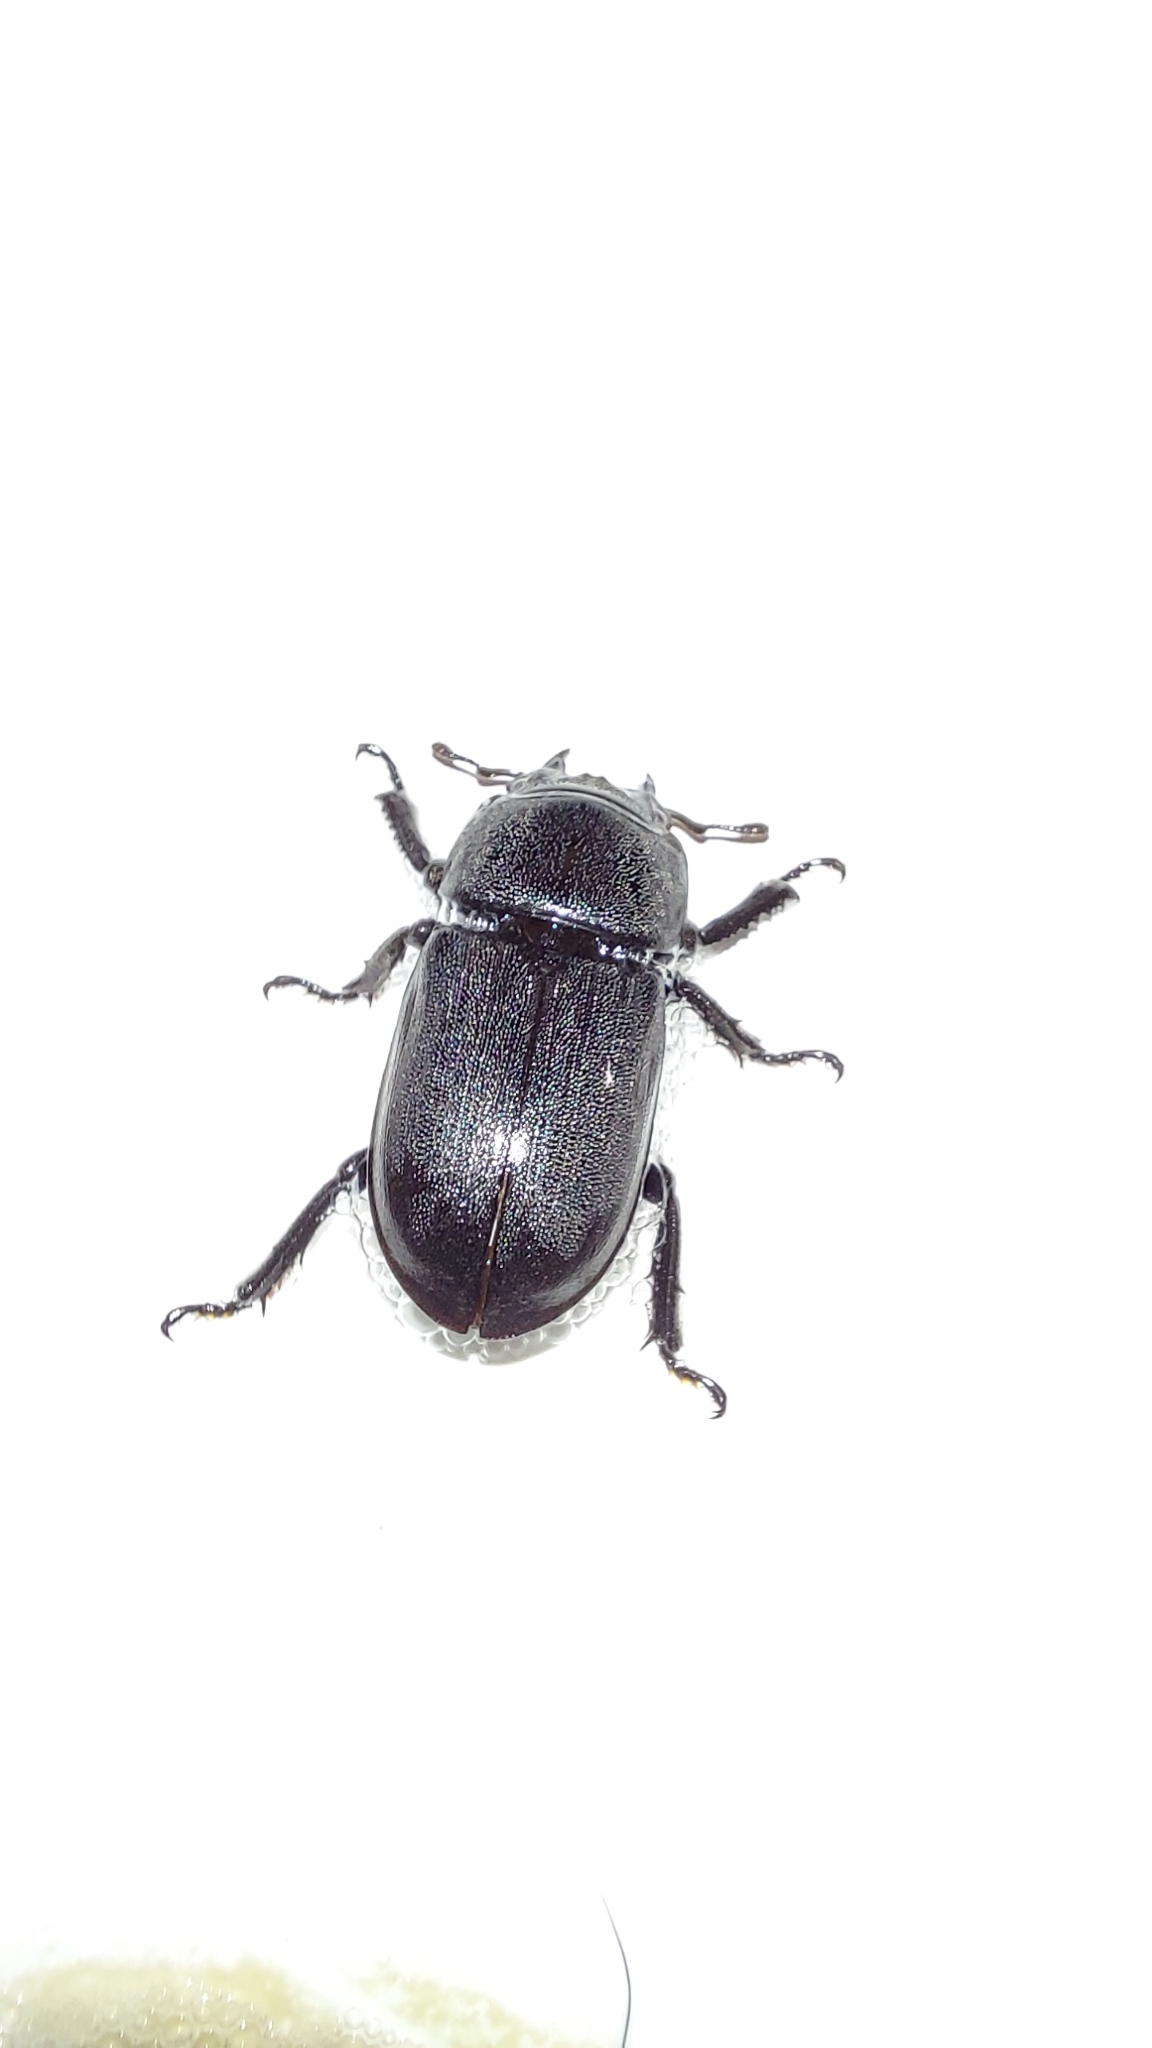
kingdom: Animalia
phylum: Arthropoda
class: Insecta
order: Coleoptera
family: Lucanidae
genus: Dorcus
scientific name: Dorcus parallelipipedus
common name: Lesser stag beetle
